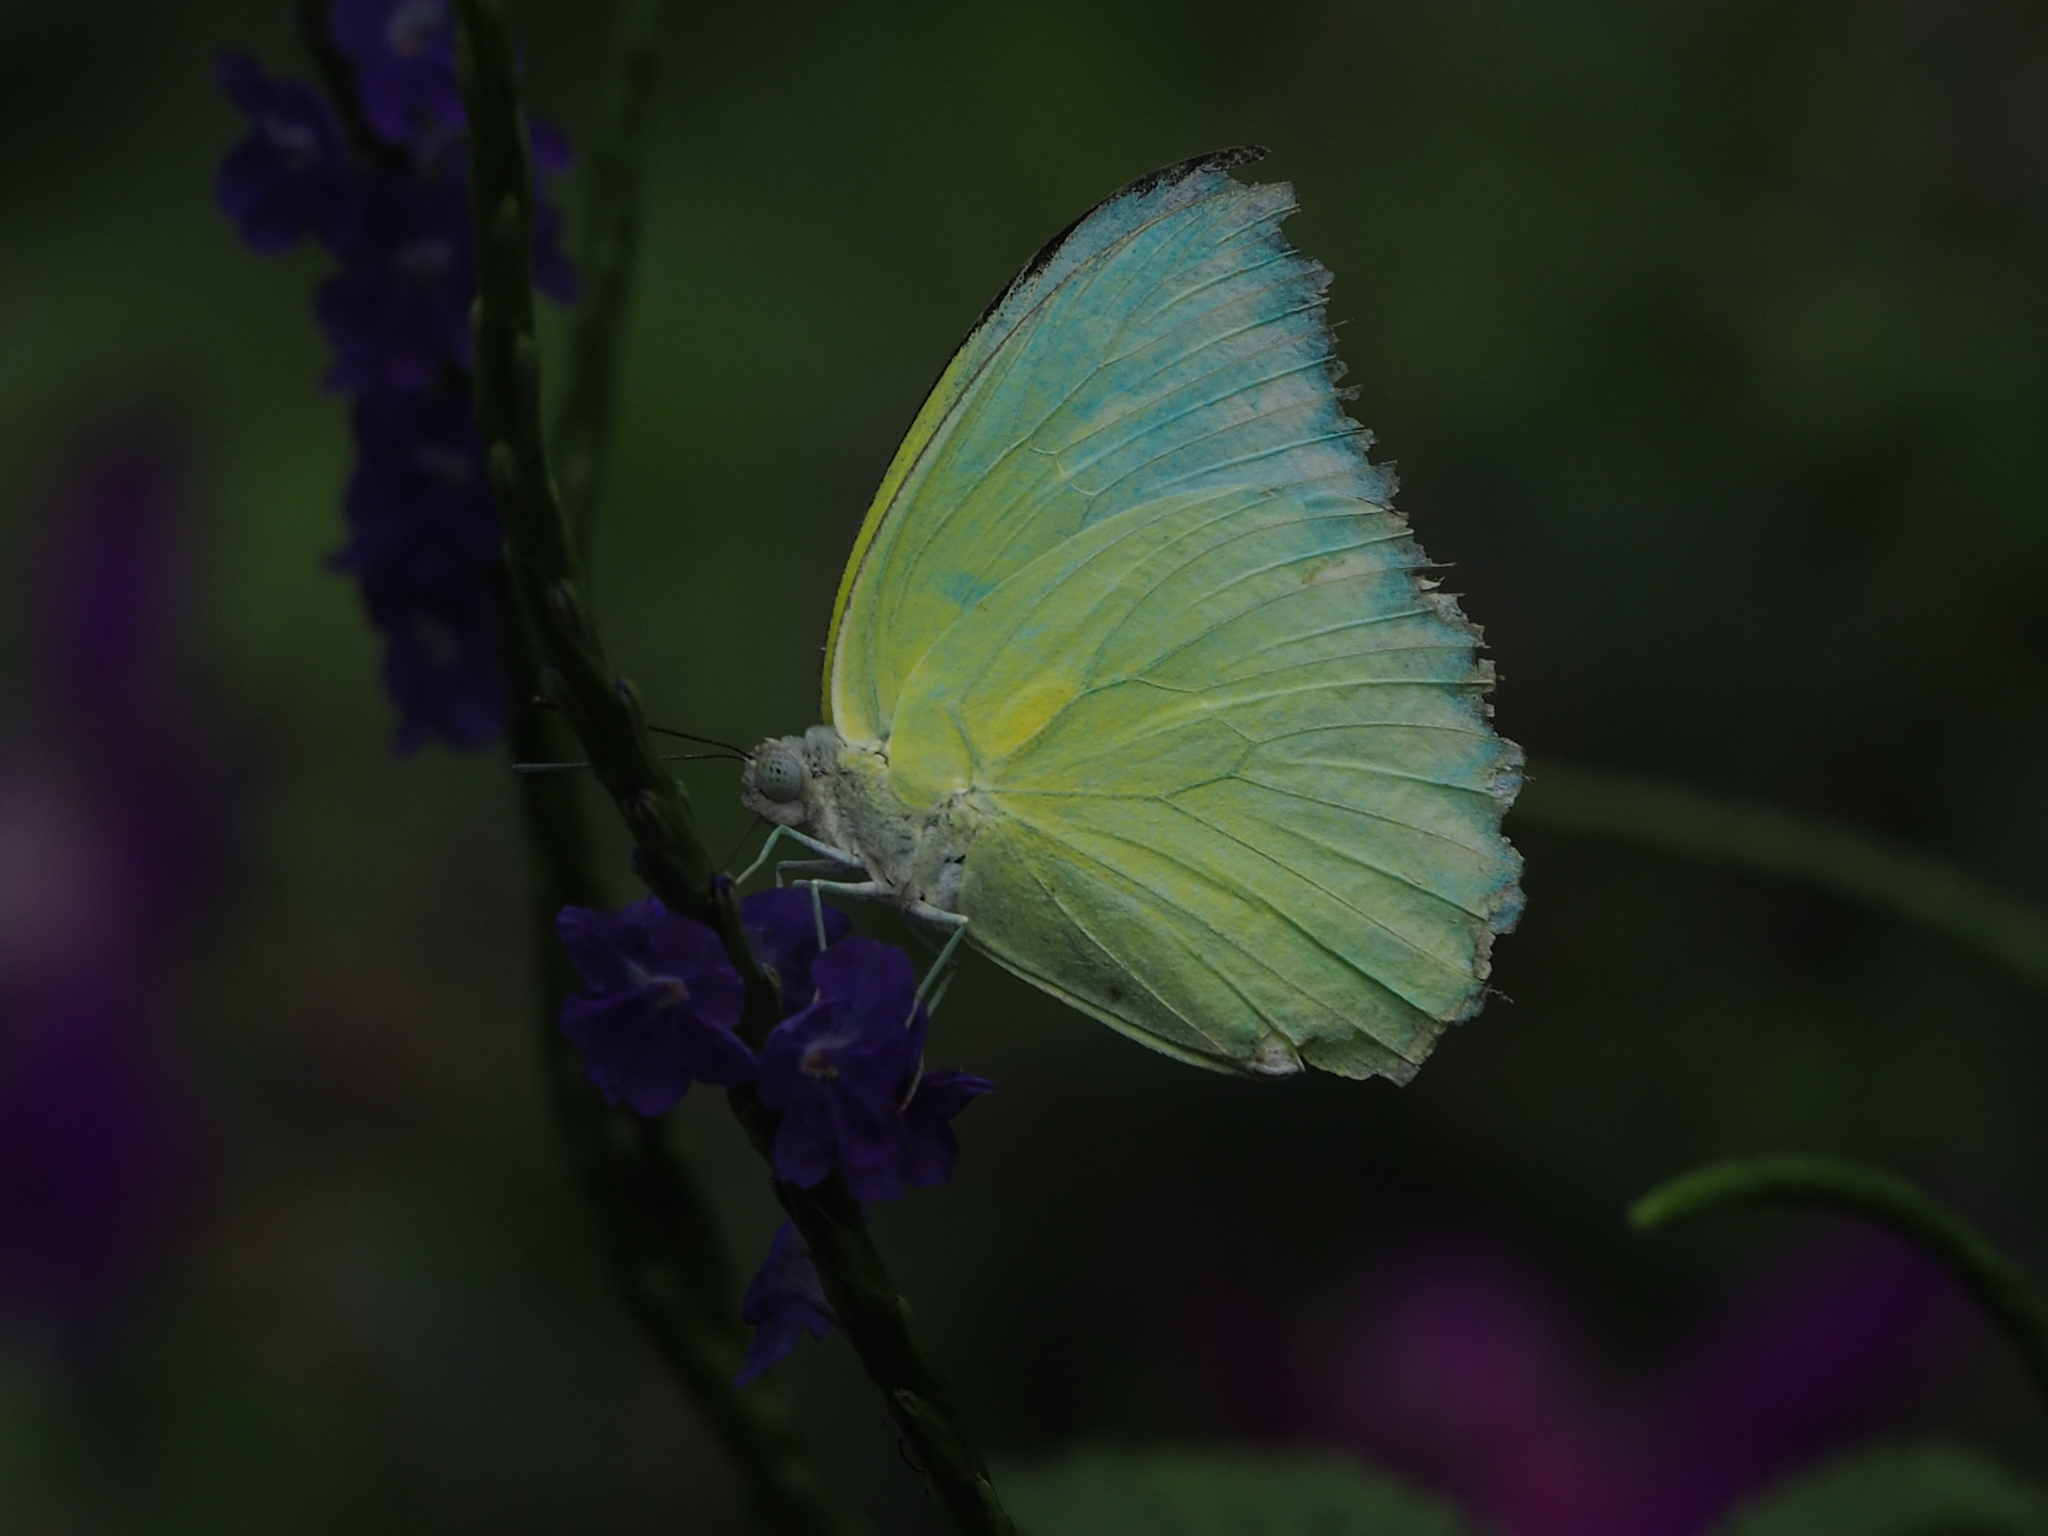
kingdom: Animalia
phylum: Arthropoda
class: Insecta
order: Lepidoptera
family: Pieridae
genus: Catopsilia
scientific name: Catopsilia pomona
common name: Common emigrant
